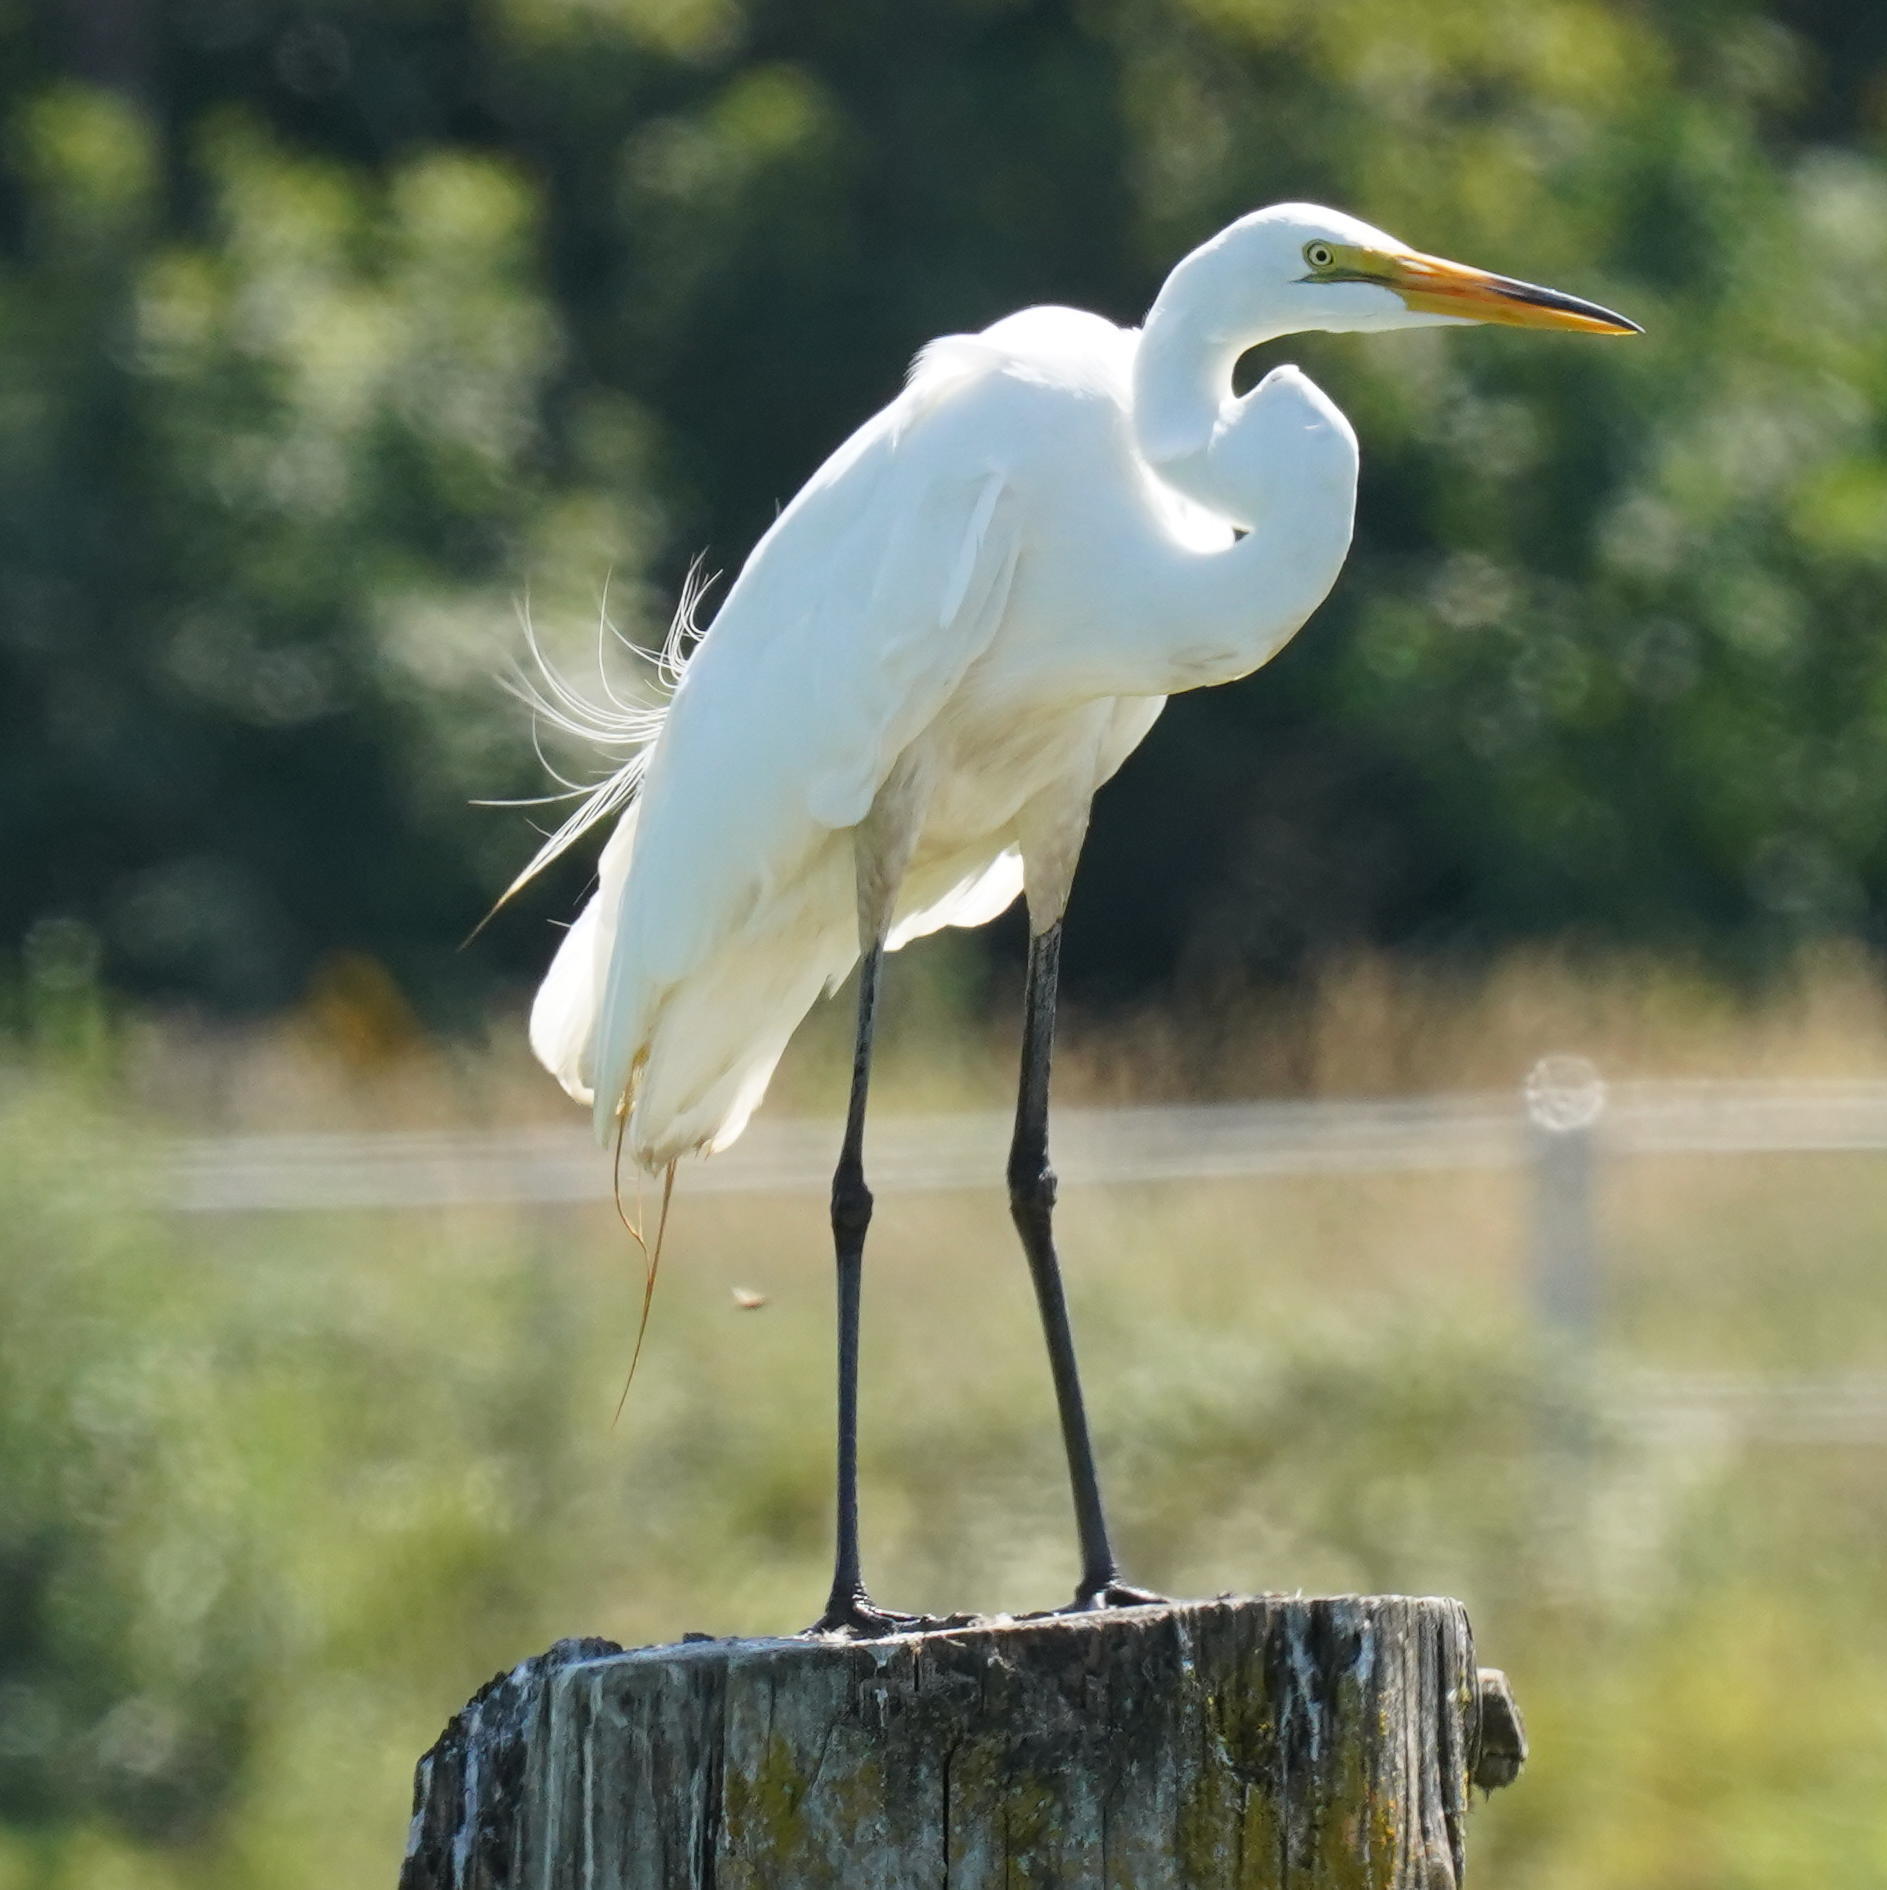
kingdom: Animalia
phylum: Chordata
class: Aves
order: Pelecaniformes
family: Ardeidae
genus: Ardea
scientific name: Ardea alba
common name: Great egret
